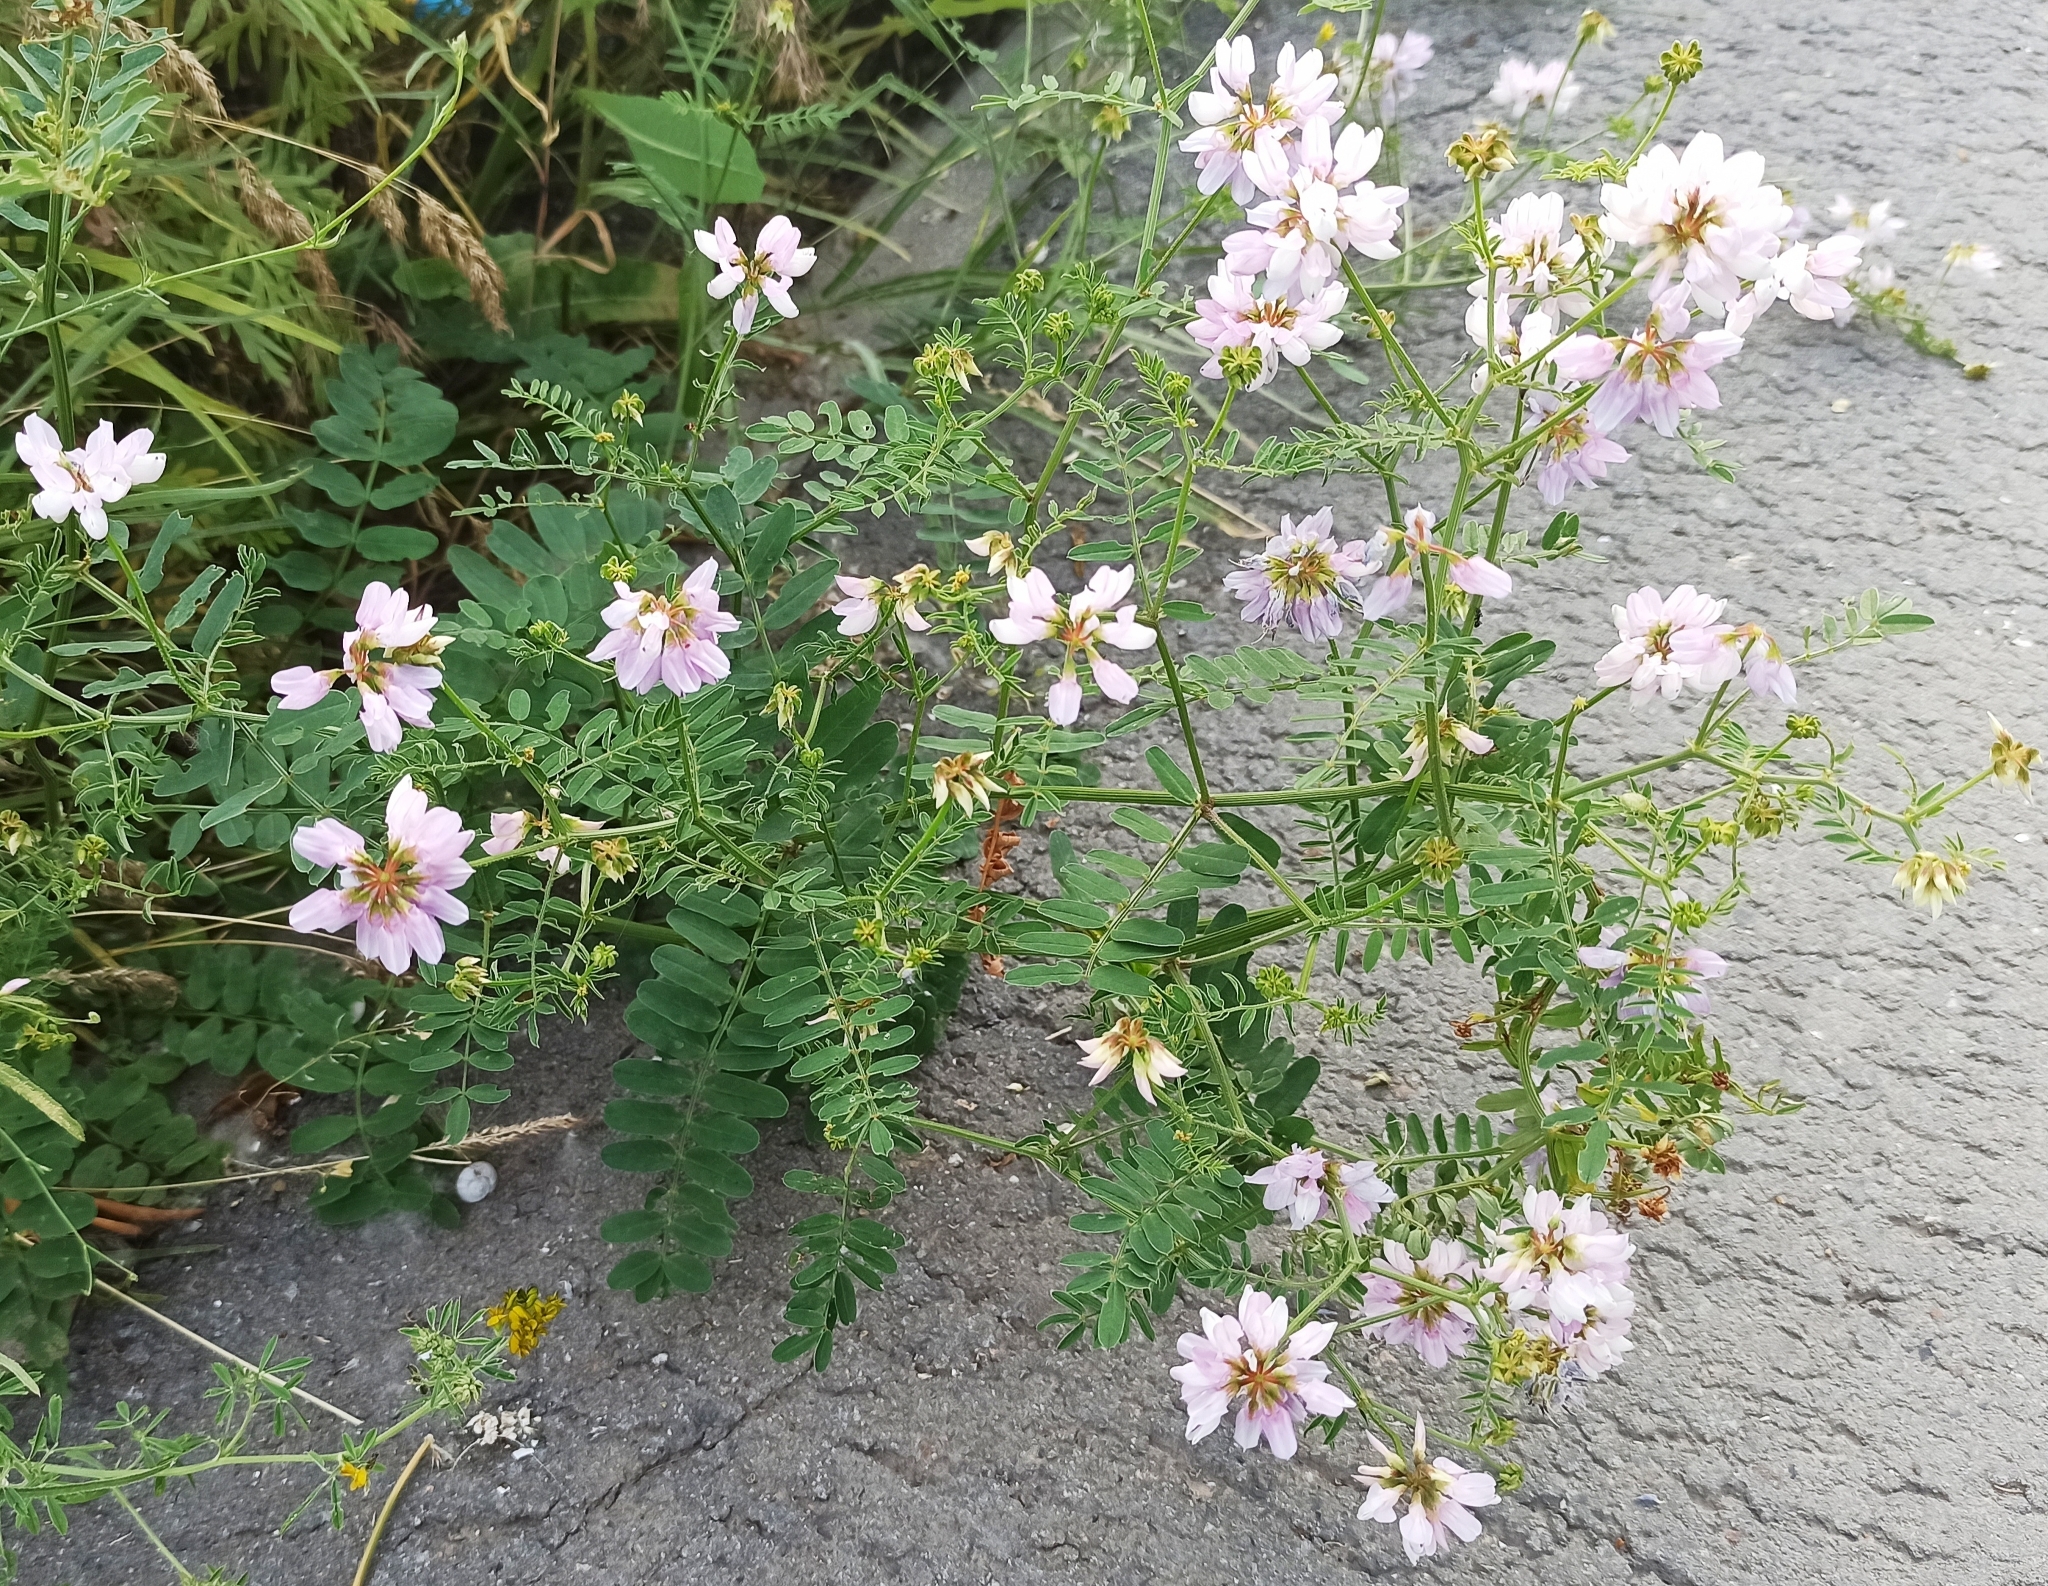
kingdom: Plantae
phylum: Tracheophyta
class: Magnoliopsida
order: Fabales
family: Fabaceae
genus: Coronilla
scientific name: Coronilla varia
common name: Crownvetch
